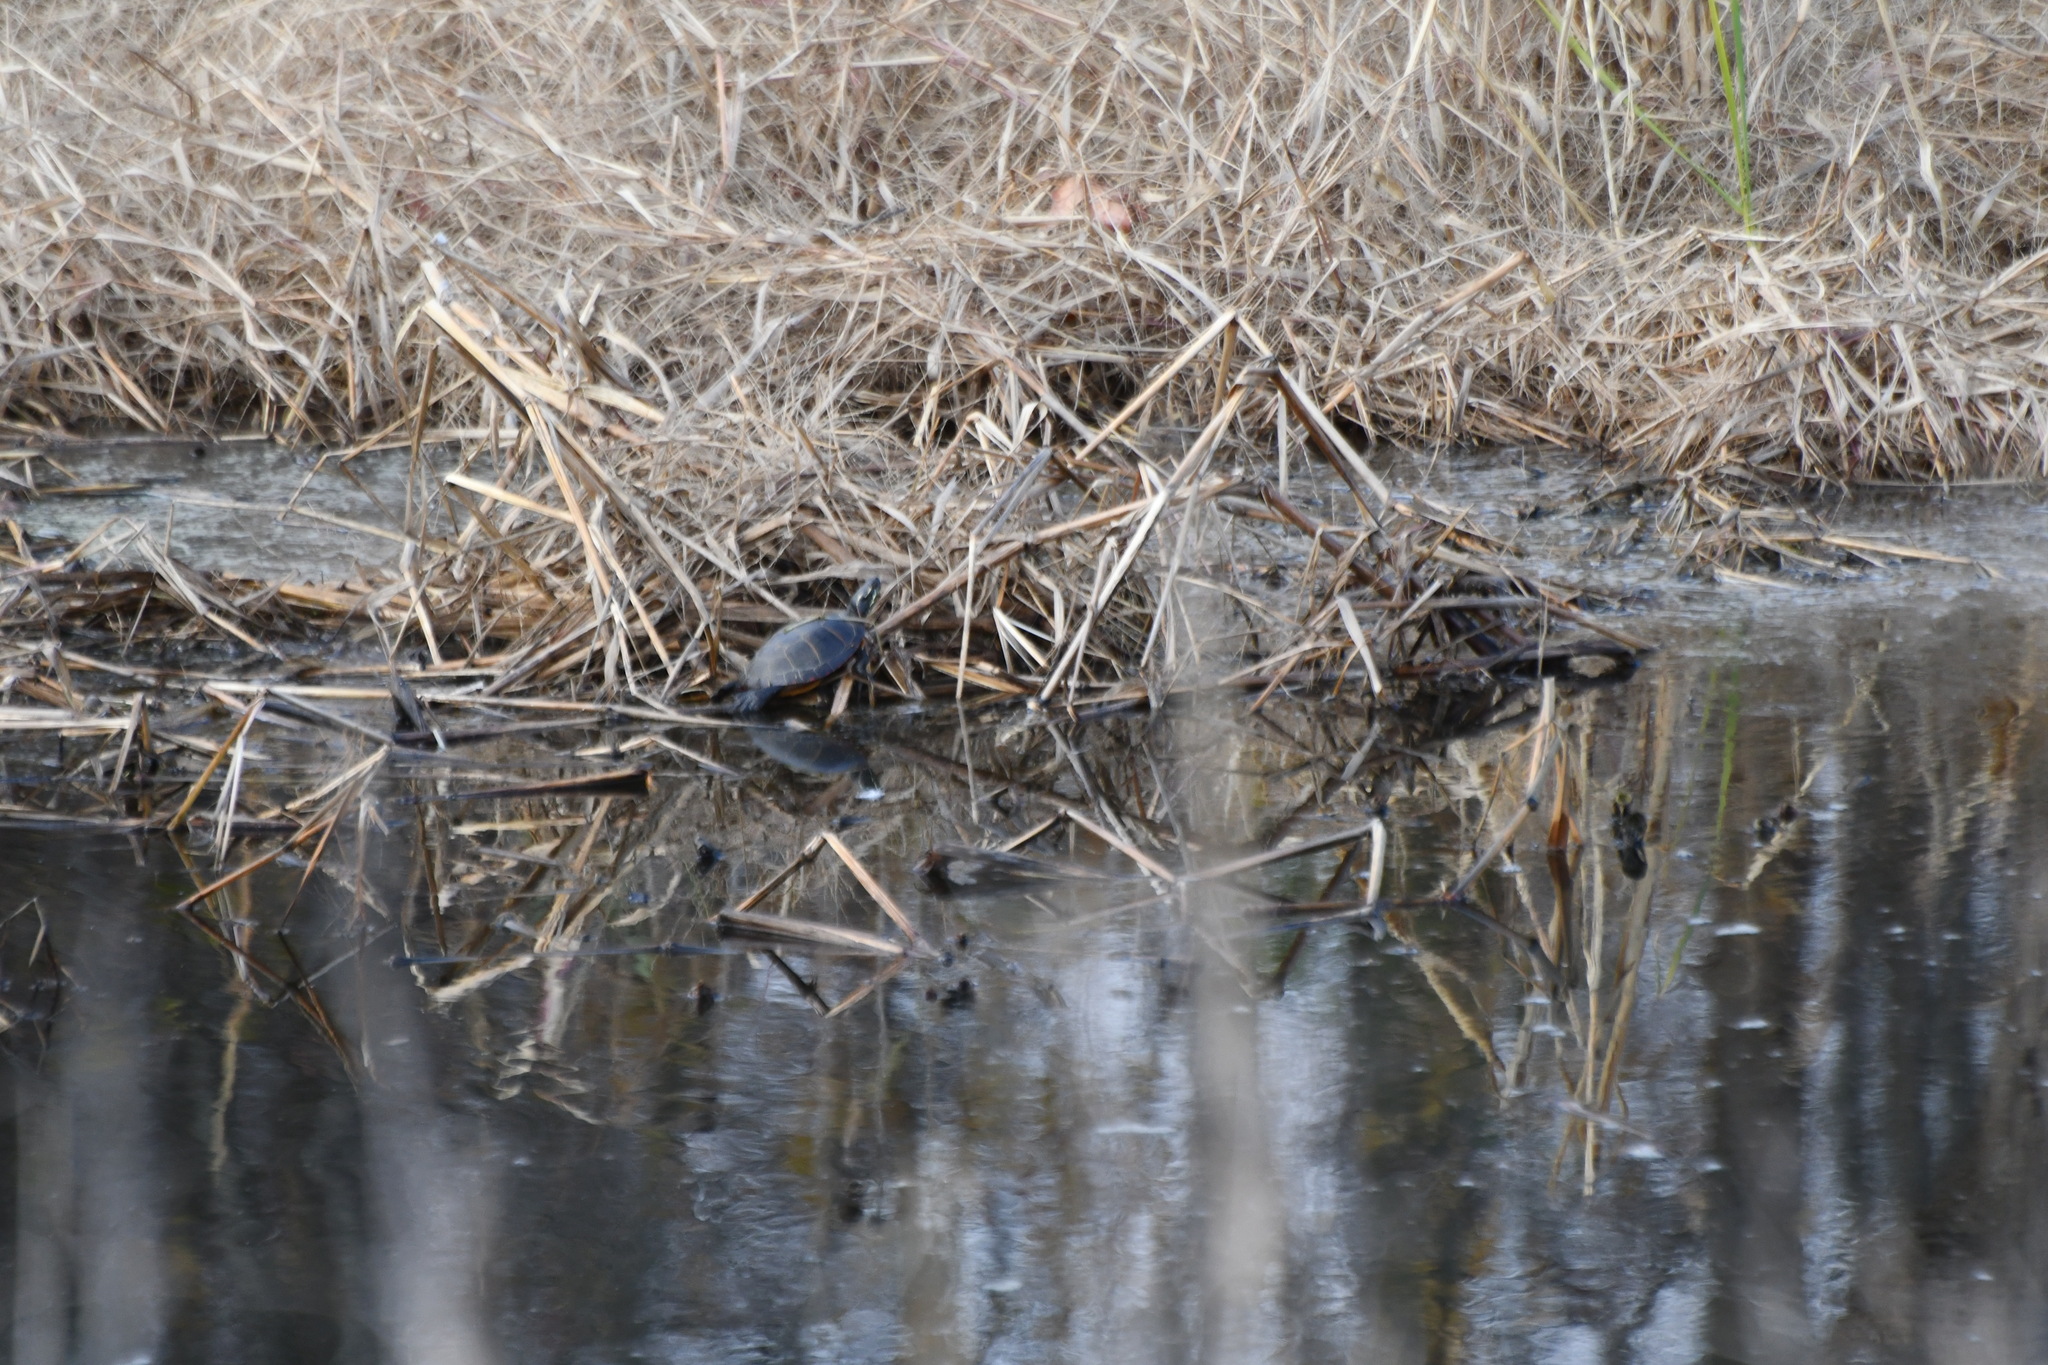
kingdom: Animalia
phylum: Chordata
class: Testudines
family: Emydidae
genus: Chrysemys
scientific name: Chrysemys picta
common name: Painted turtle
